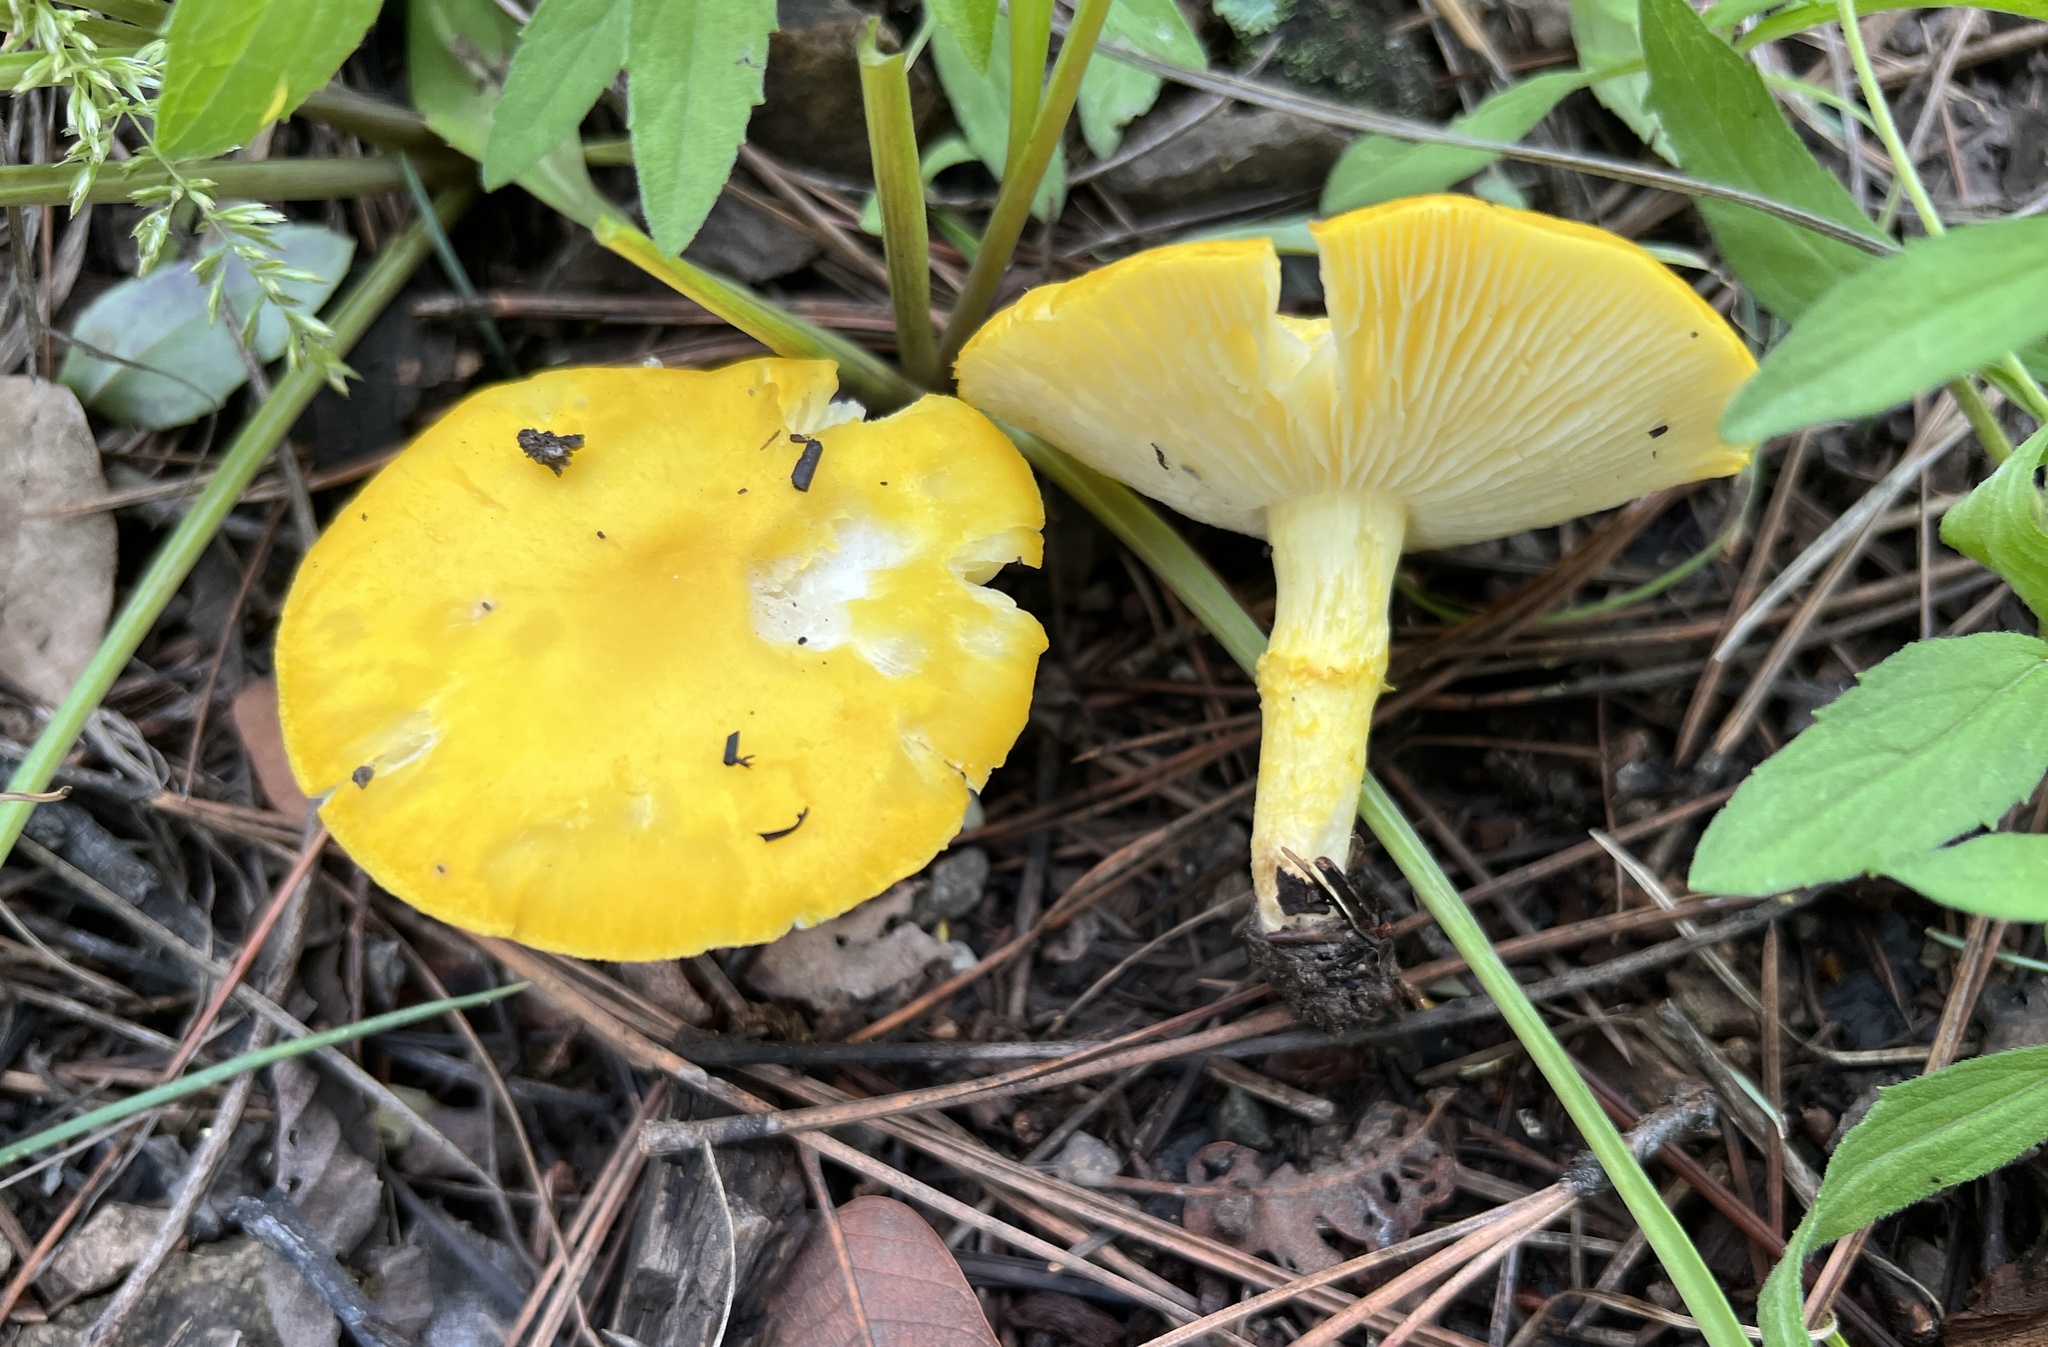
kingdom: Fungi
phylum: Basidiomycota
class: Agaricomycetes
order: Agaricales
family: Agaricaceae
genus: Floccularia
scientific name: Floccularia albolanaripes
